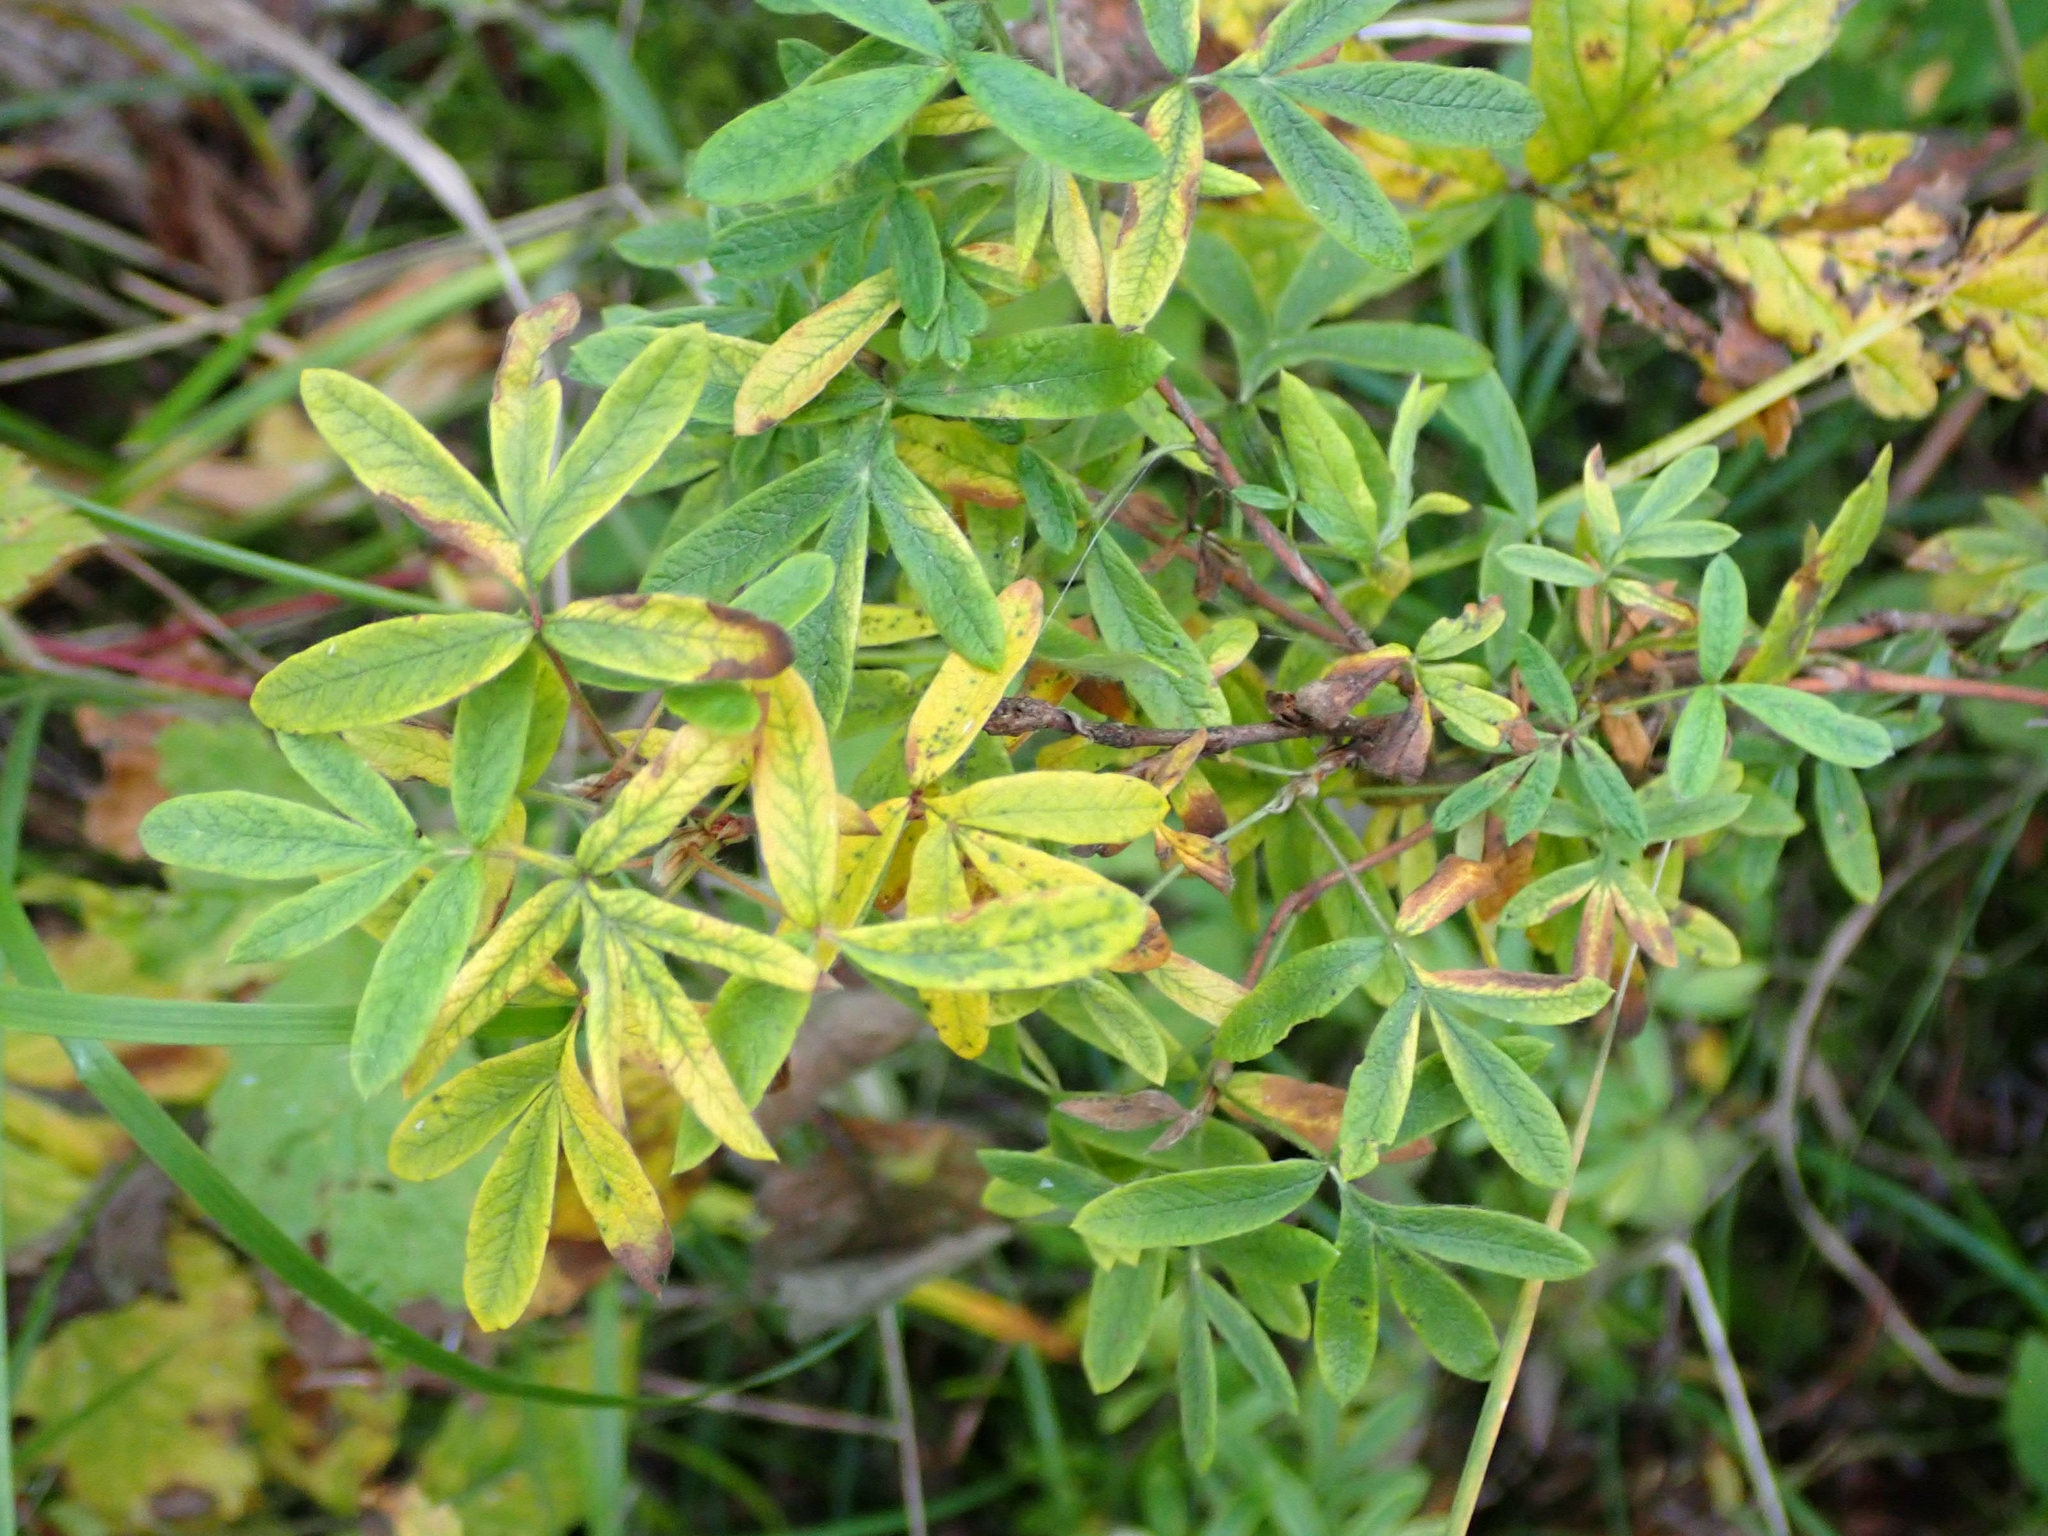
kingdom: Plantae
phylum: Tracheophyta
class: Magnoliopsida
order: Rosales
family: Rosaceae
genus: Dasiphora
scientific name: Dasiphora fruticosa
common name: Shrubby cinquefoil
